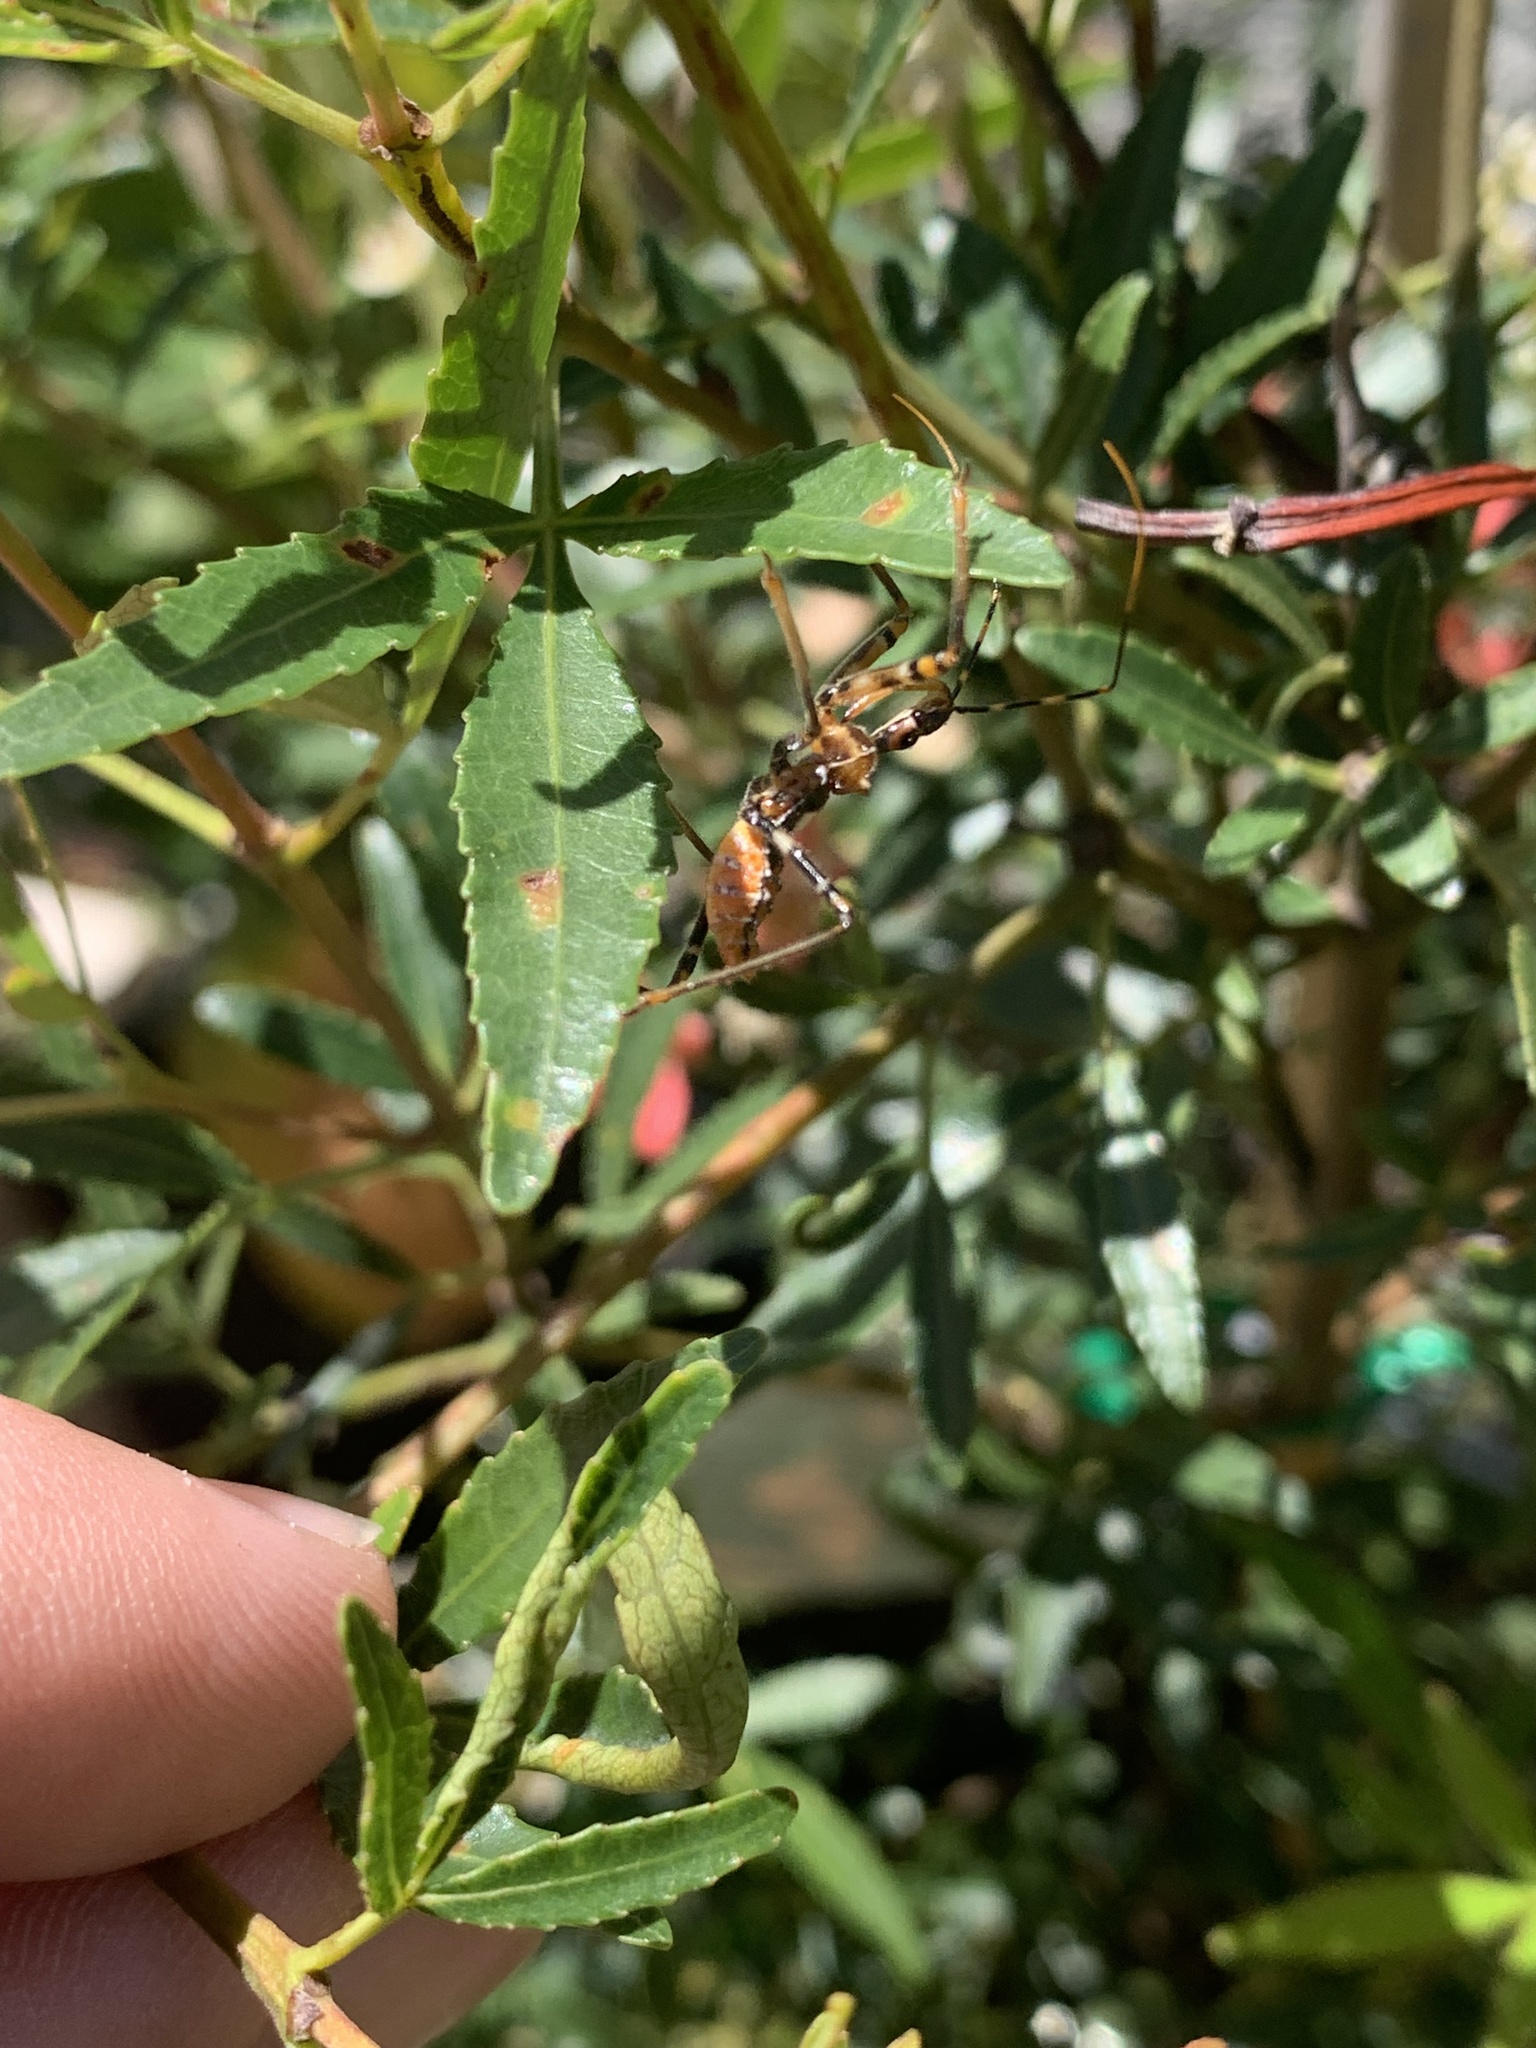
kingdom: Animalia
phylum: Arthropoda
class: Insecta
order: Hemiptera
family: Reduviidae
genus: Pristhesancus
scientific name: Pristhesancus plagipennis
